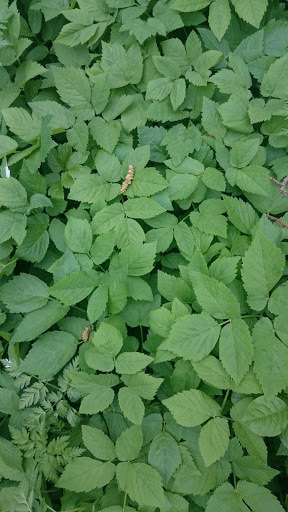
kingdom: Plantae
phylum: Tracheophyta
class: Magnoliopsida
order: Apiales
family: Apiaceae
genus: Aegopodium
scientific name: Aegopodium podagraria
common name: Ground-elder
